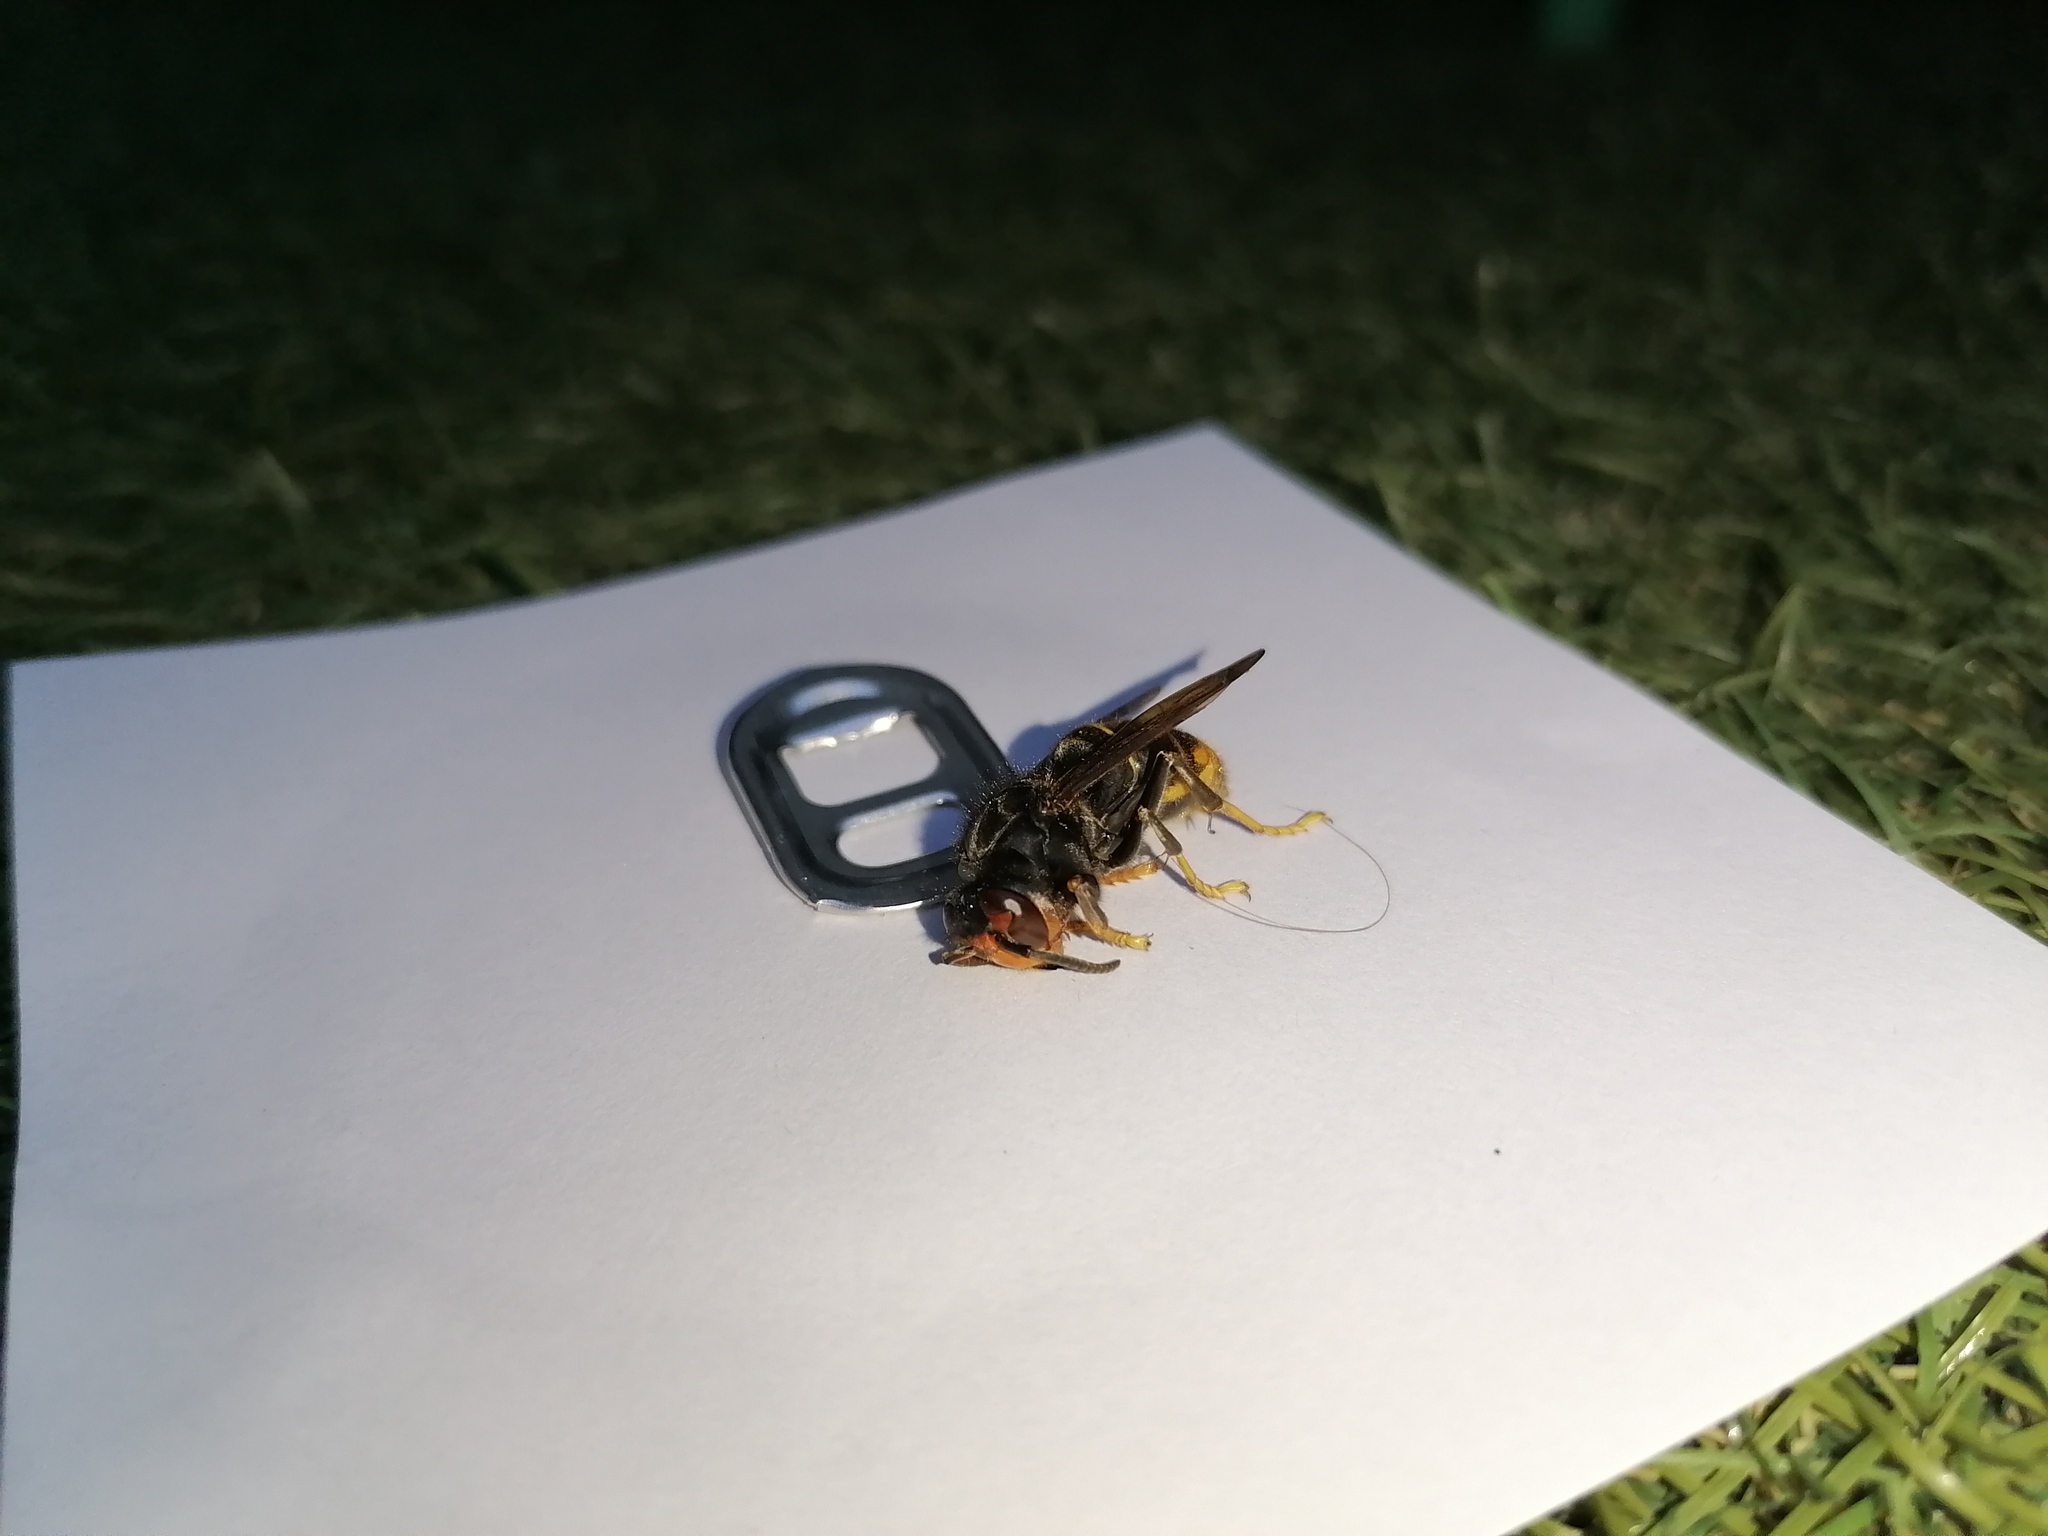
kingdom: Animalia
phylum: Arthropoda
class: Insecta
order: Hymenoptera
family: Vespidae
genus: Vespa
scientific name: Vespa velutina
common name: Asian hornet
